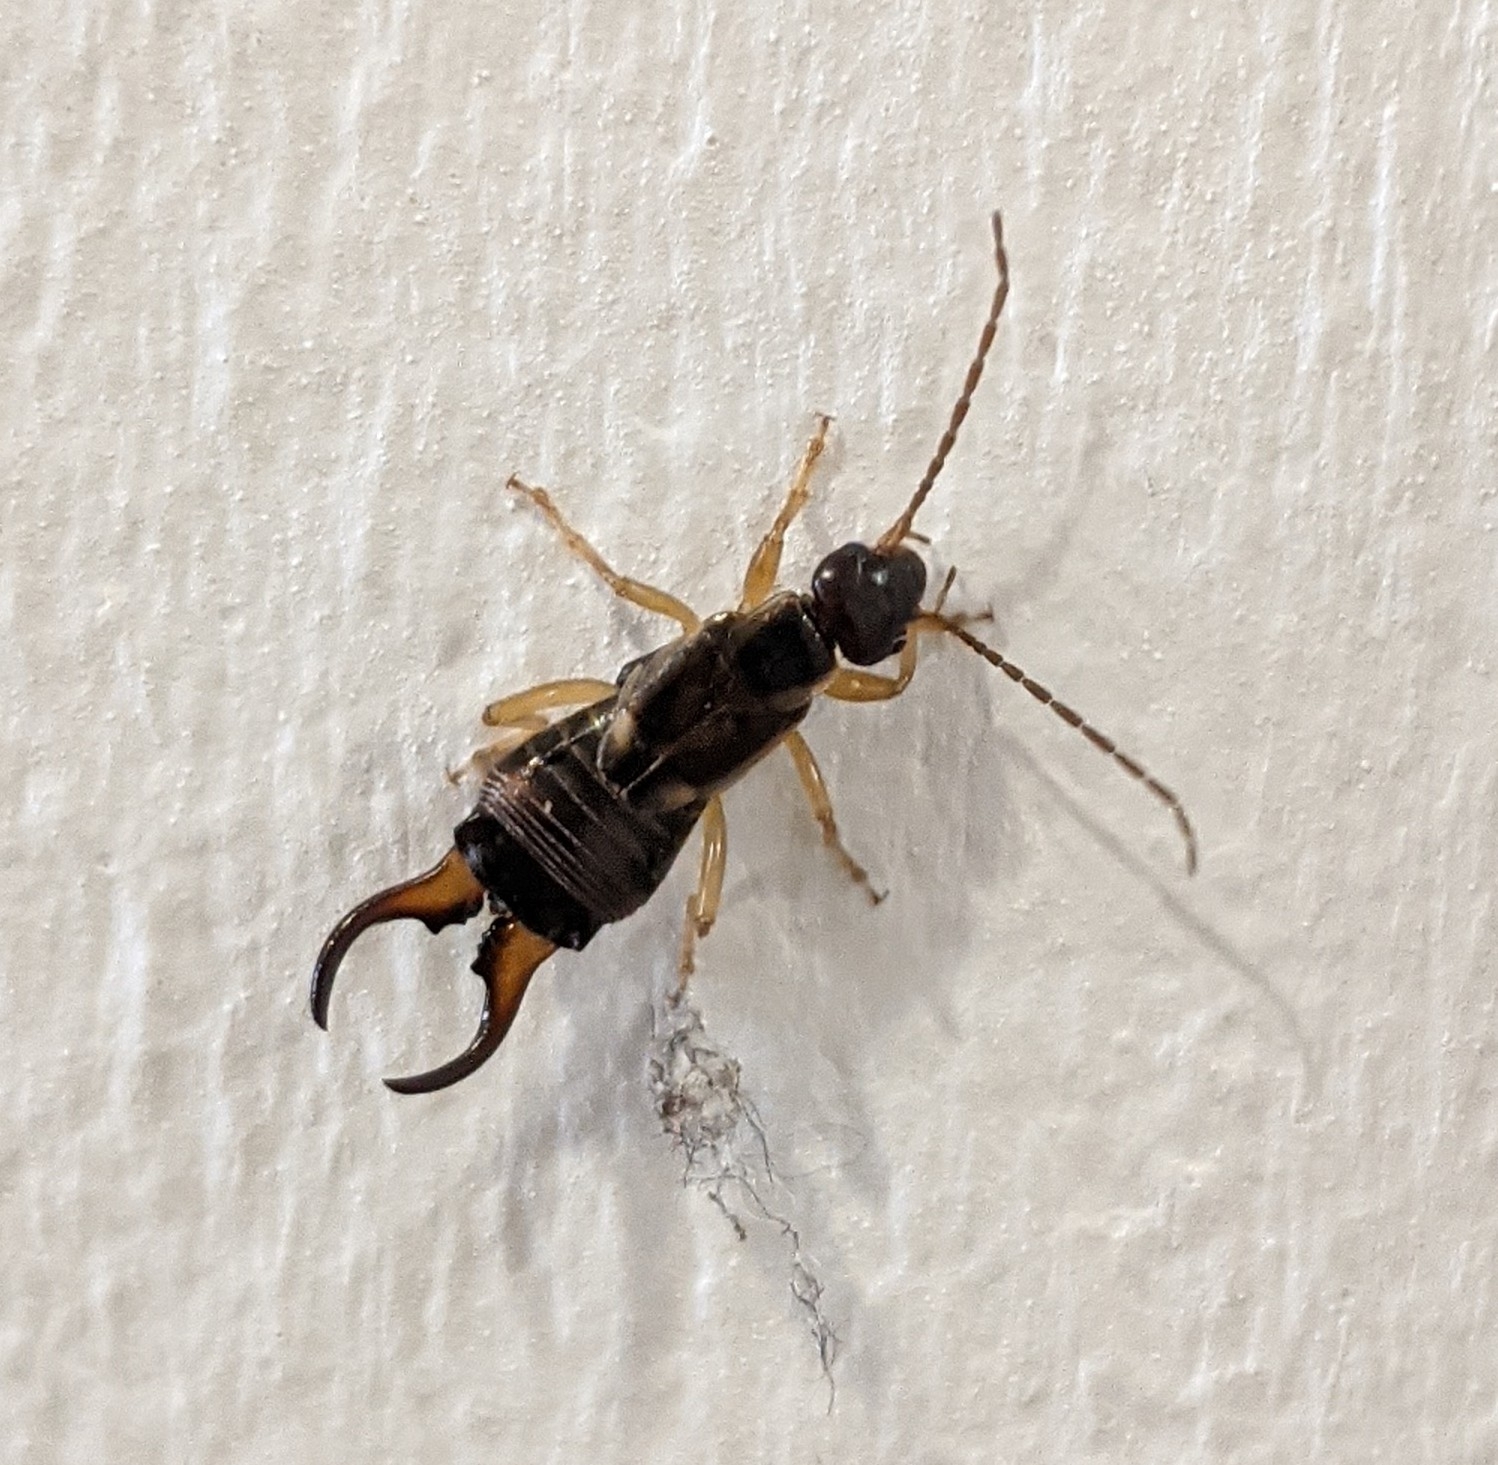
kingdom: Animalia
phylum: Arthropoda
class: Insecta
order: Dermaptera
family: Forficulidae
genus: Forficula
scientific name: Forficula
